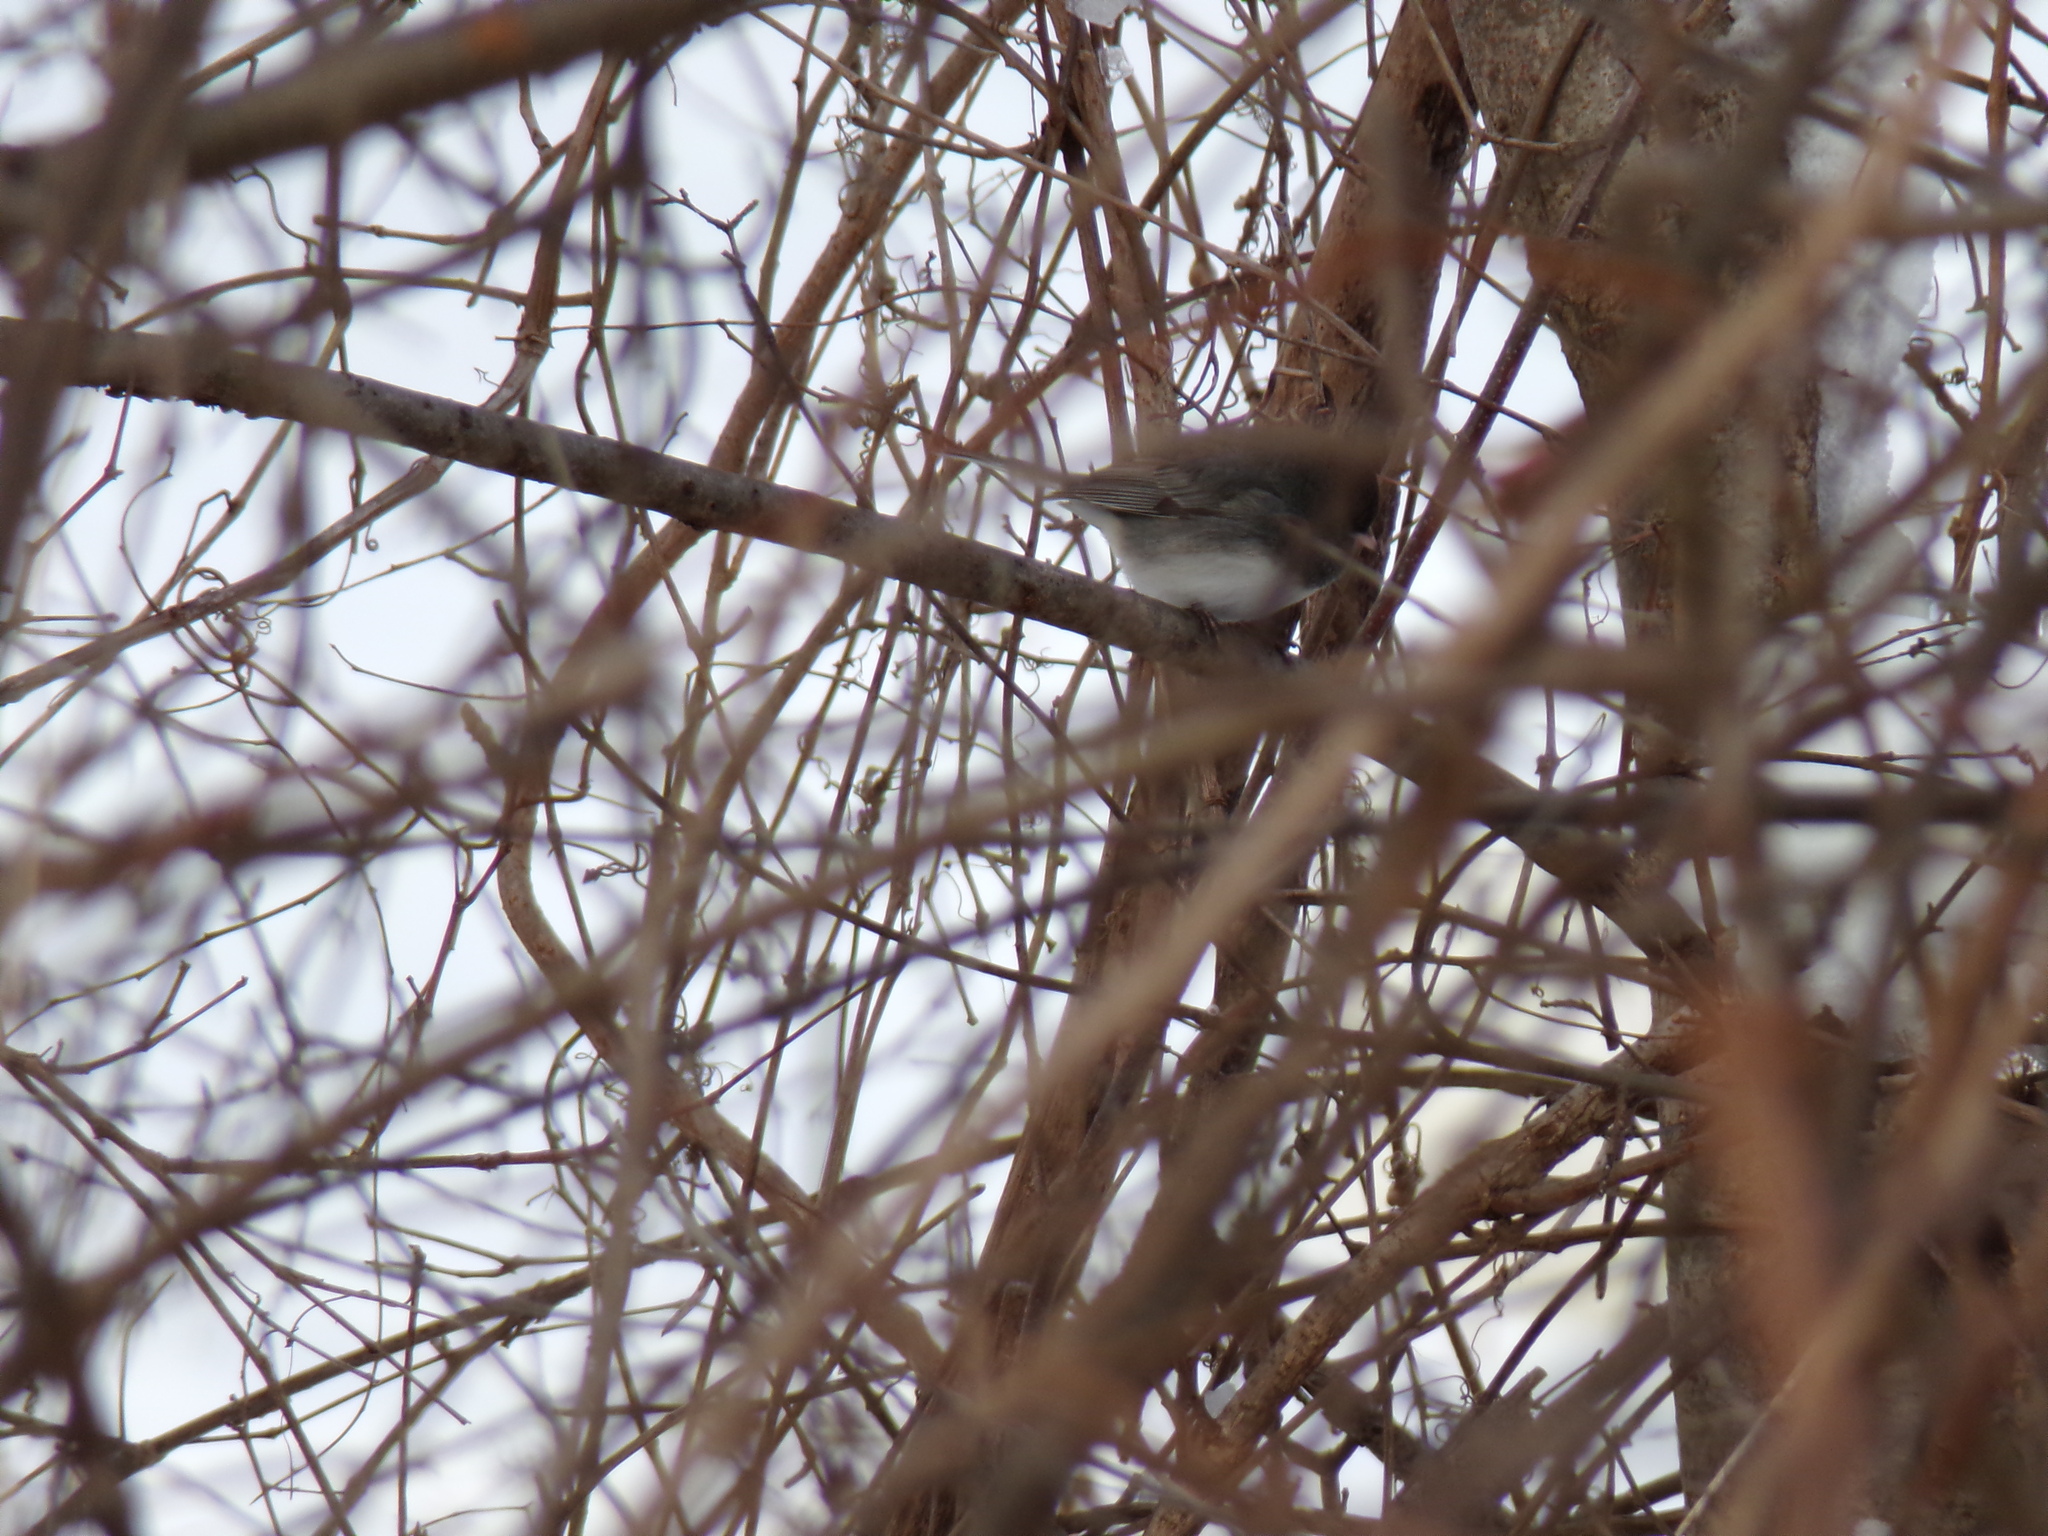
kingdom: Animalia
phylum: Chordata
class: Aves
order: Passeriformes
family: Passerellidae
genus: Junco
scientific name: Junco hyemalis
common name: Dark-eyed junco
